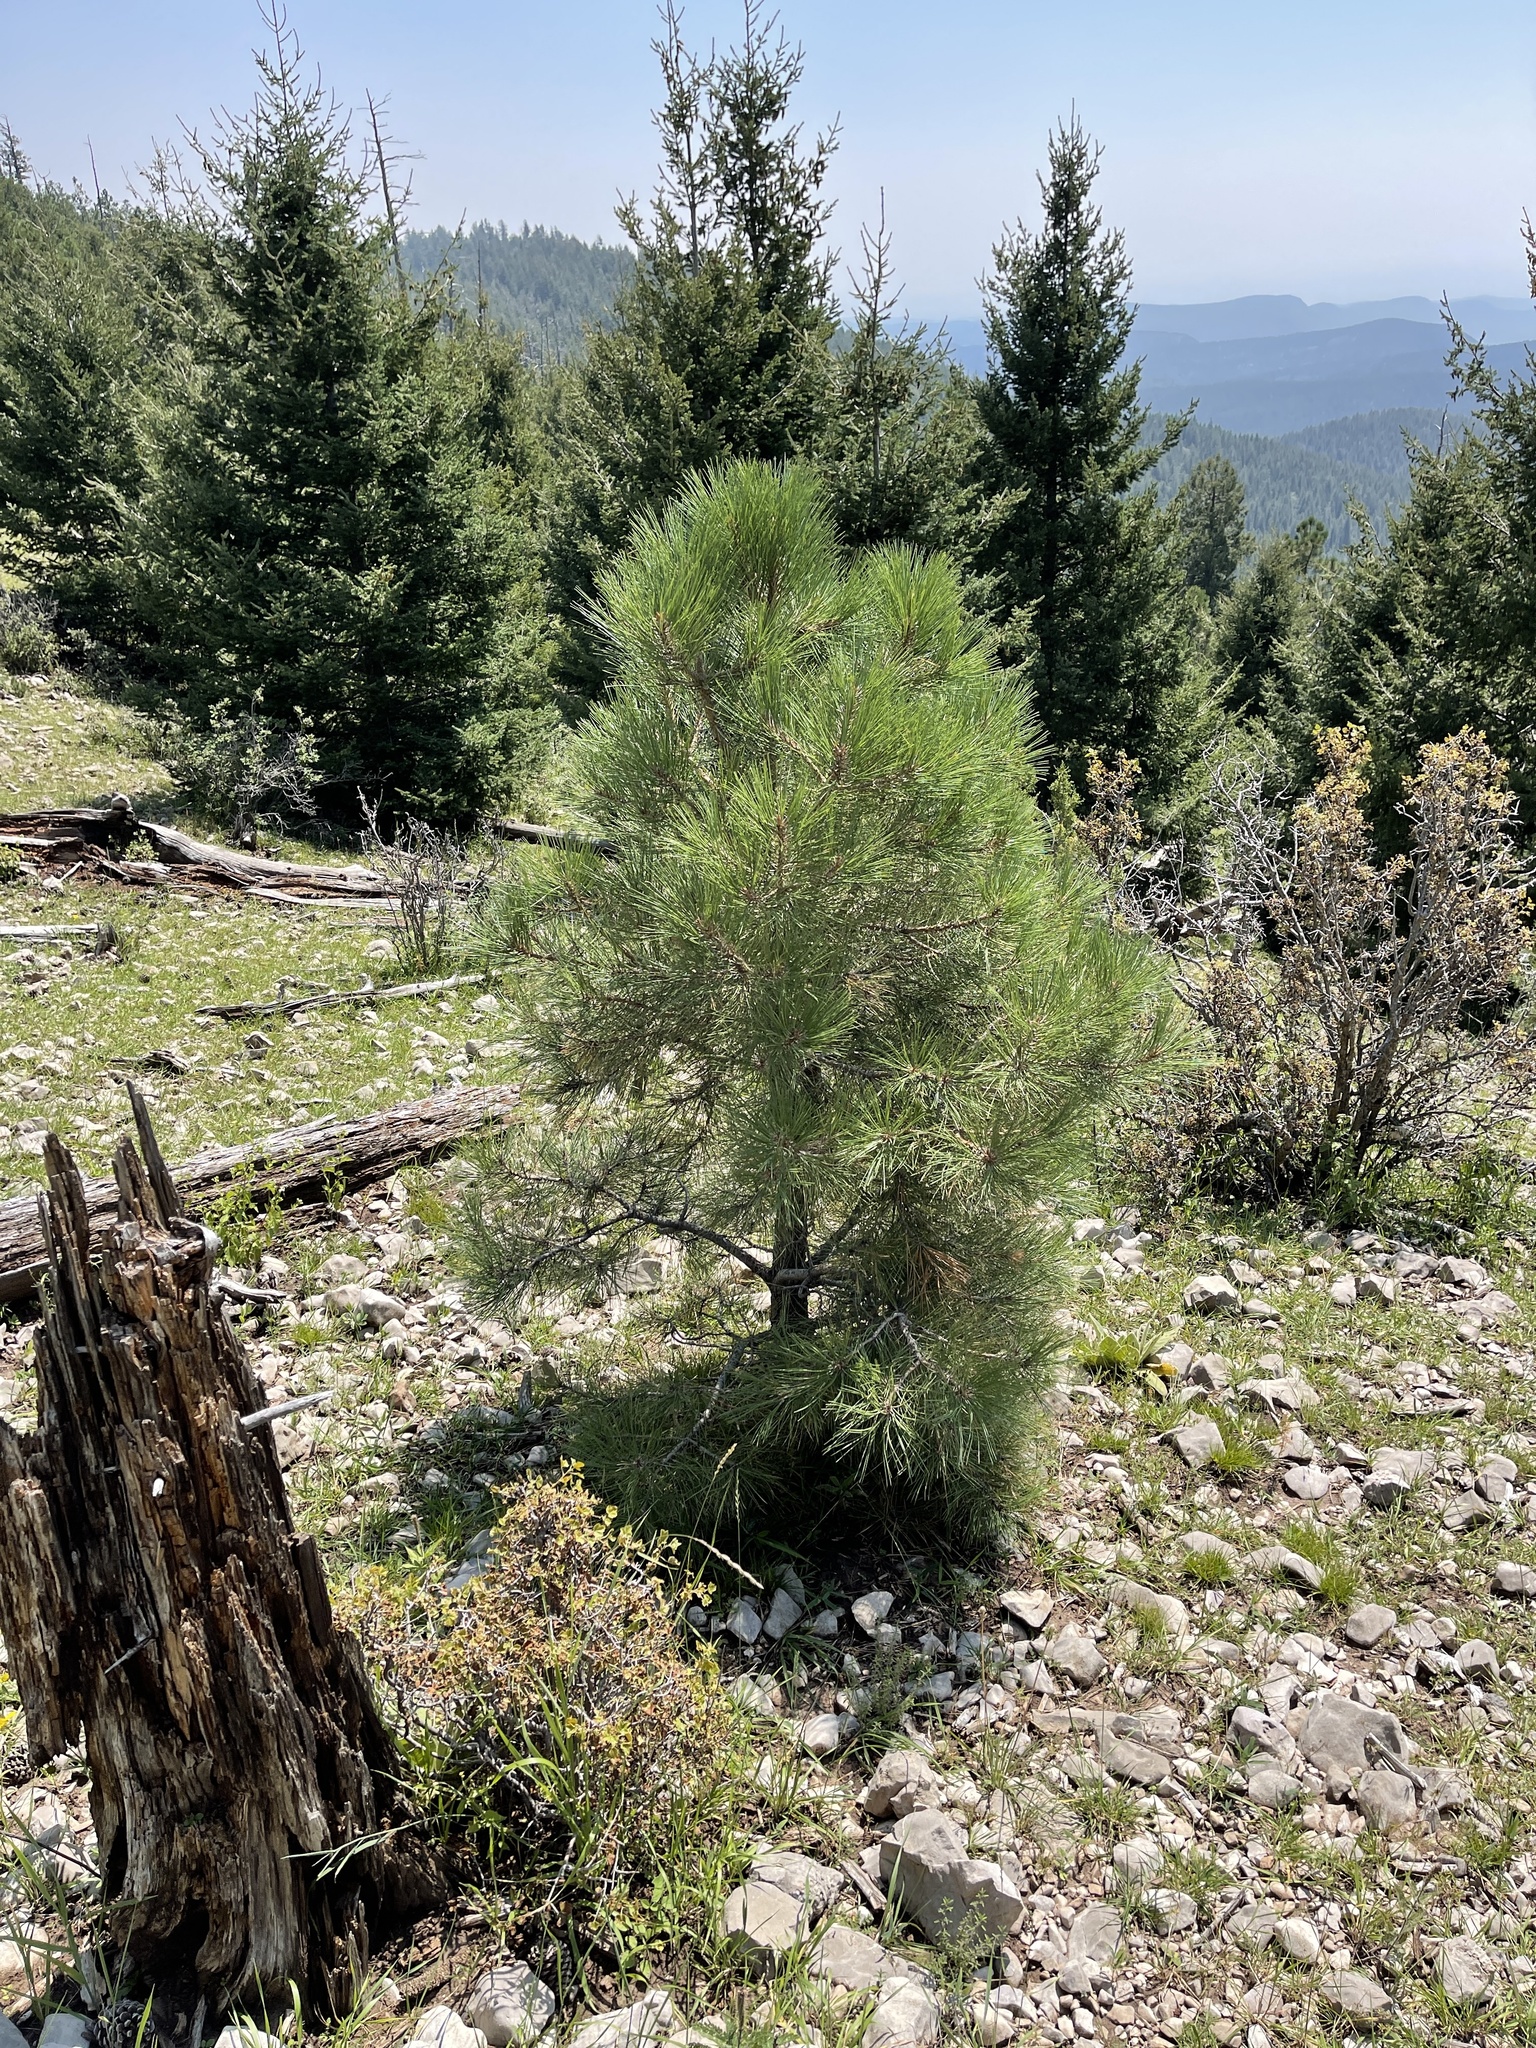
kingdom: Plantae
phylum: Tracheophyta
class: Pinopsida
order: Pinales
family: Pinaceae
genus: Pinus
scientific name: Pinus ponderosa
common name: Western yellow-pine
